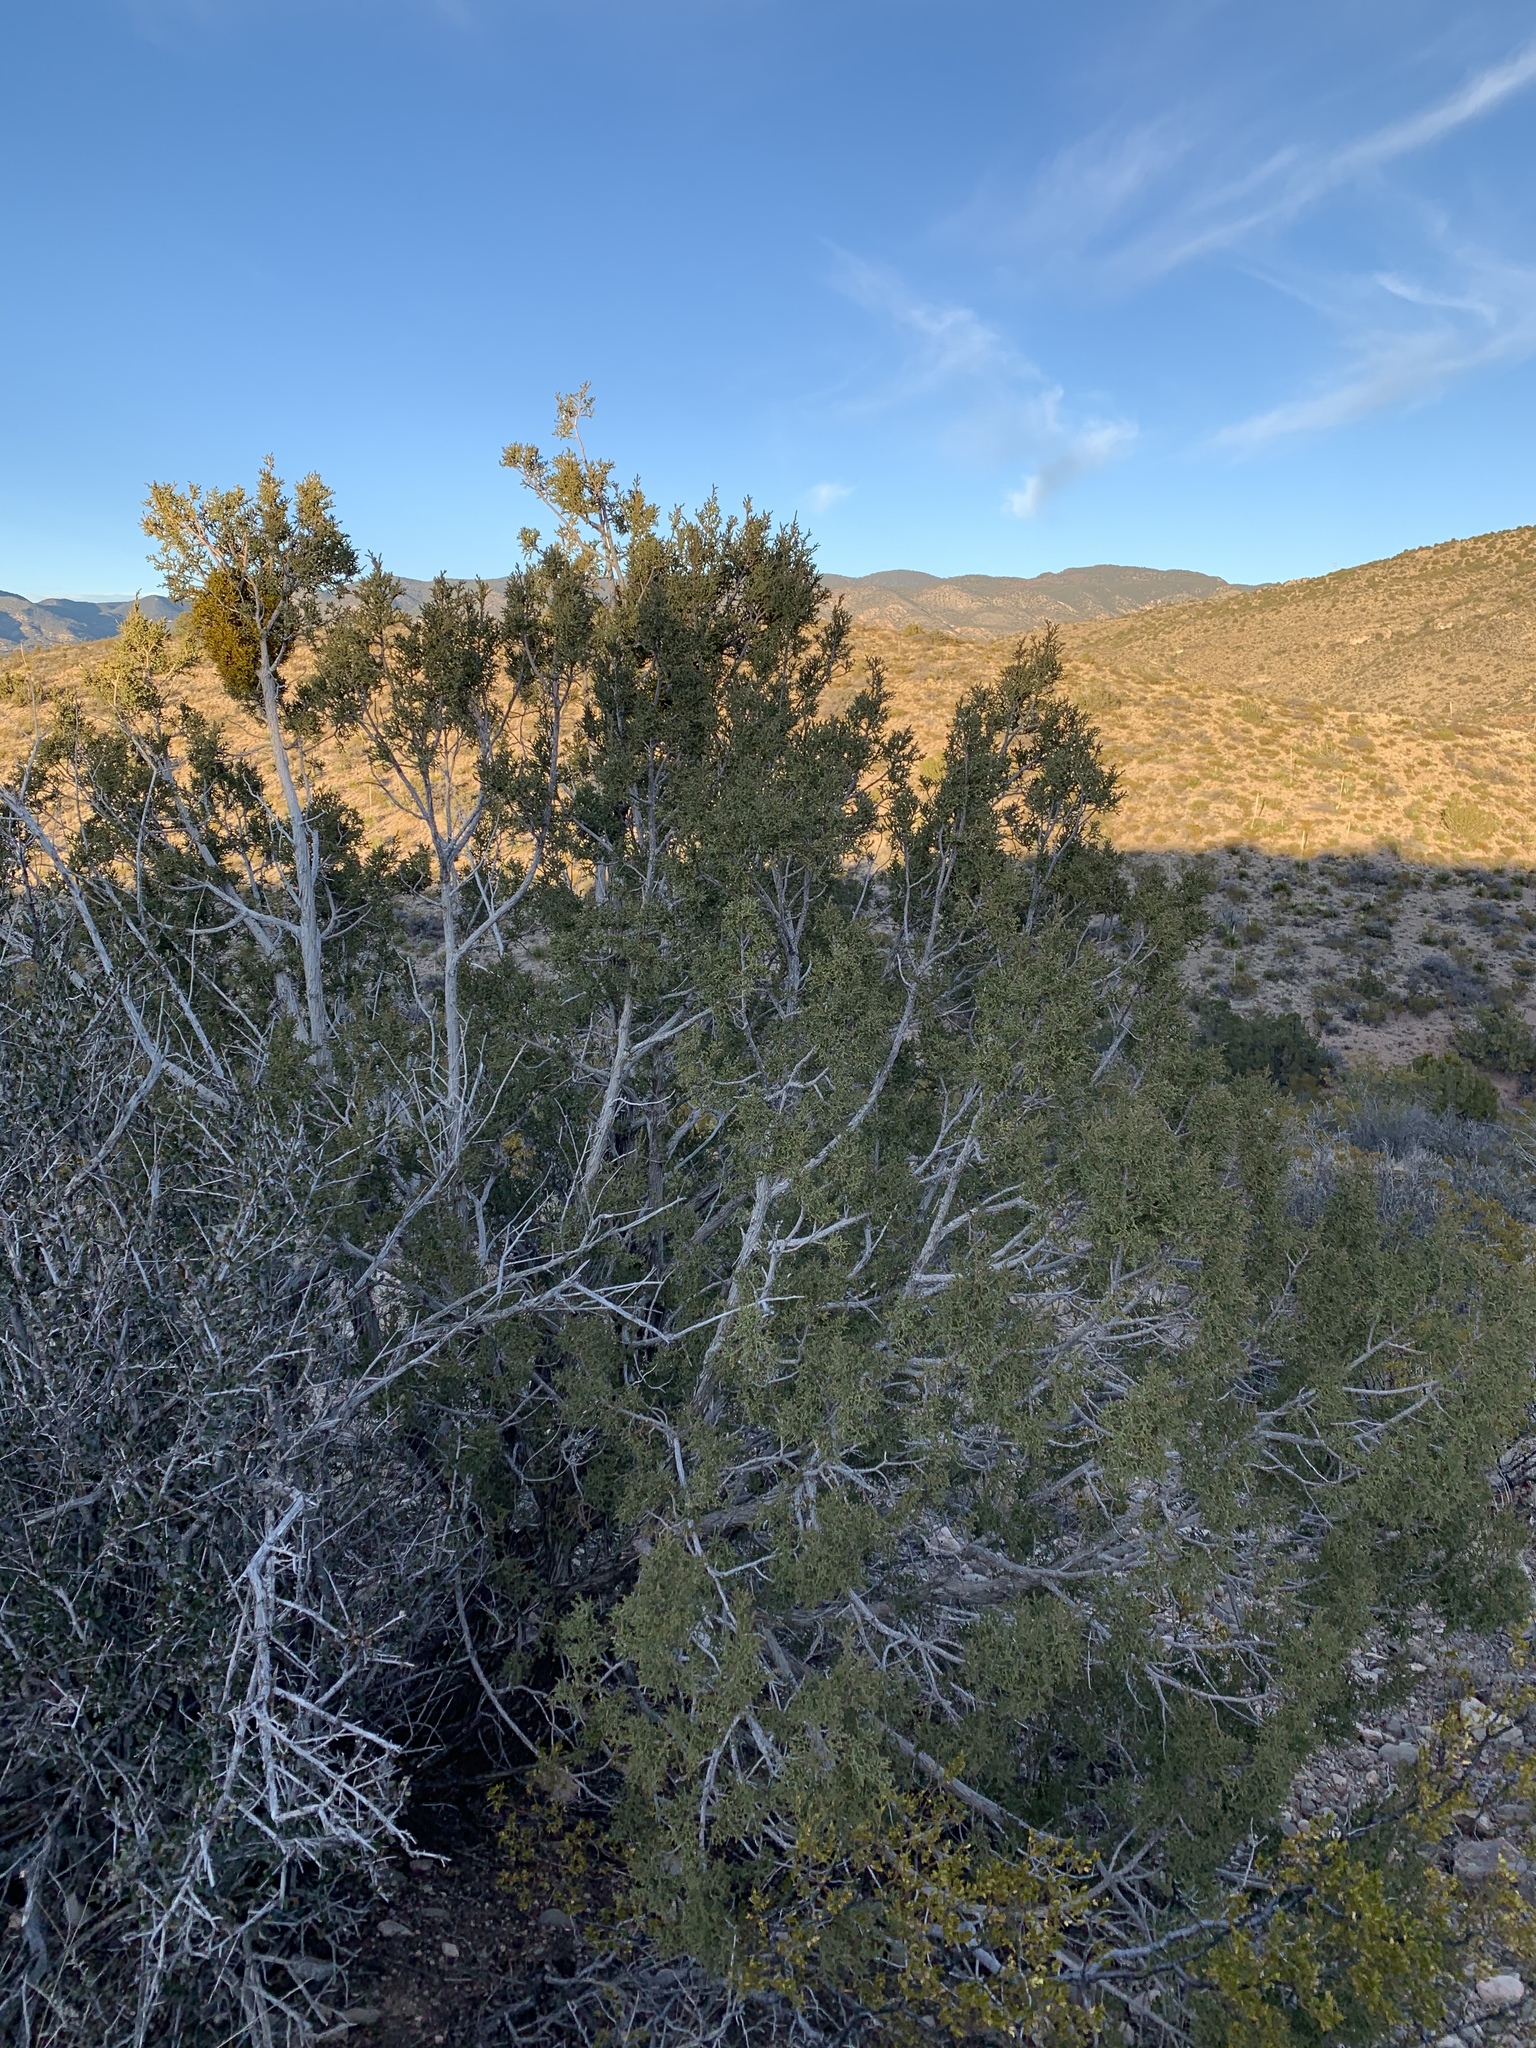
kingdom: Plantae
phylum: Tracheophyta
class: Pinopsida
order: Pinales
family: Cupressaceae
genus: Juniperus
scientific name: Juniperus monosperma
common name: One-seed juniper
